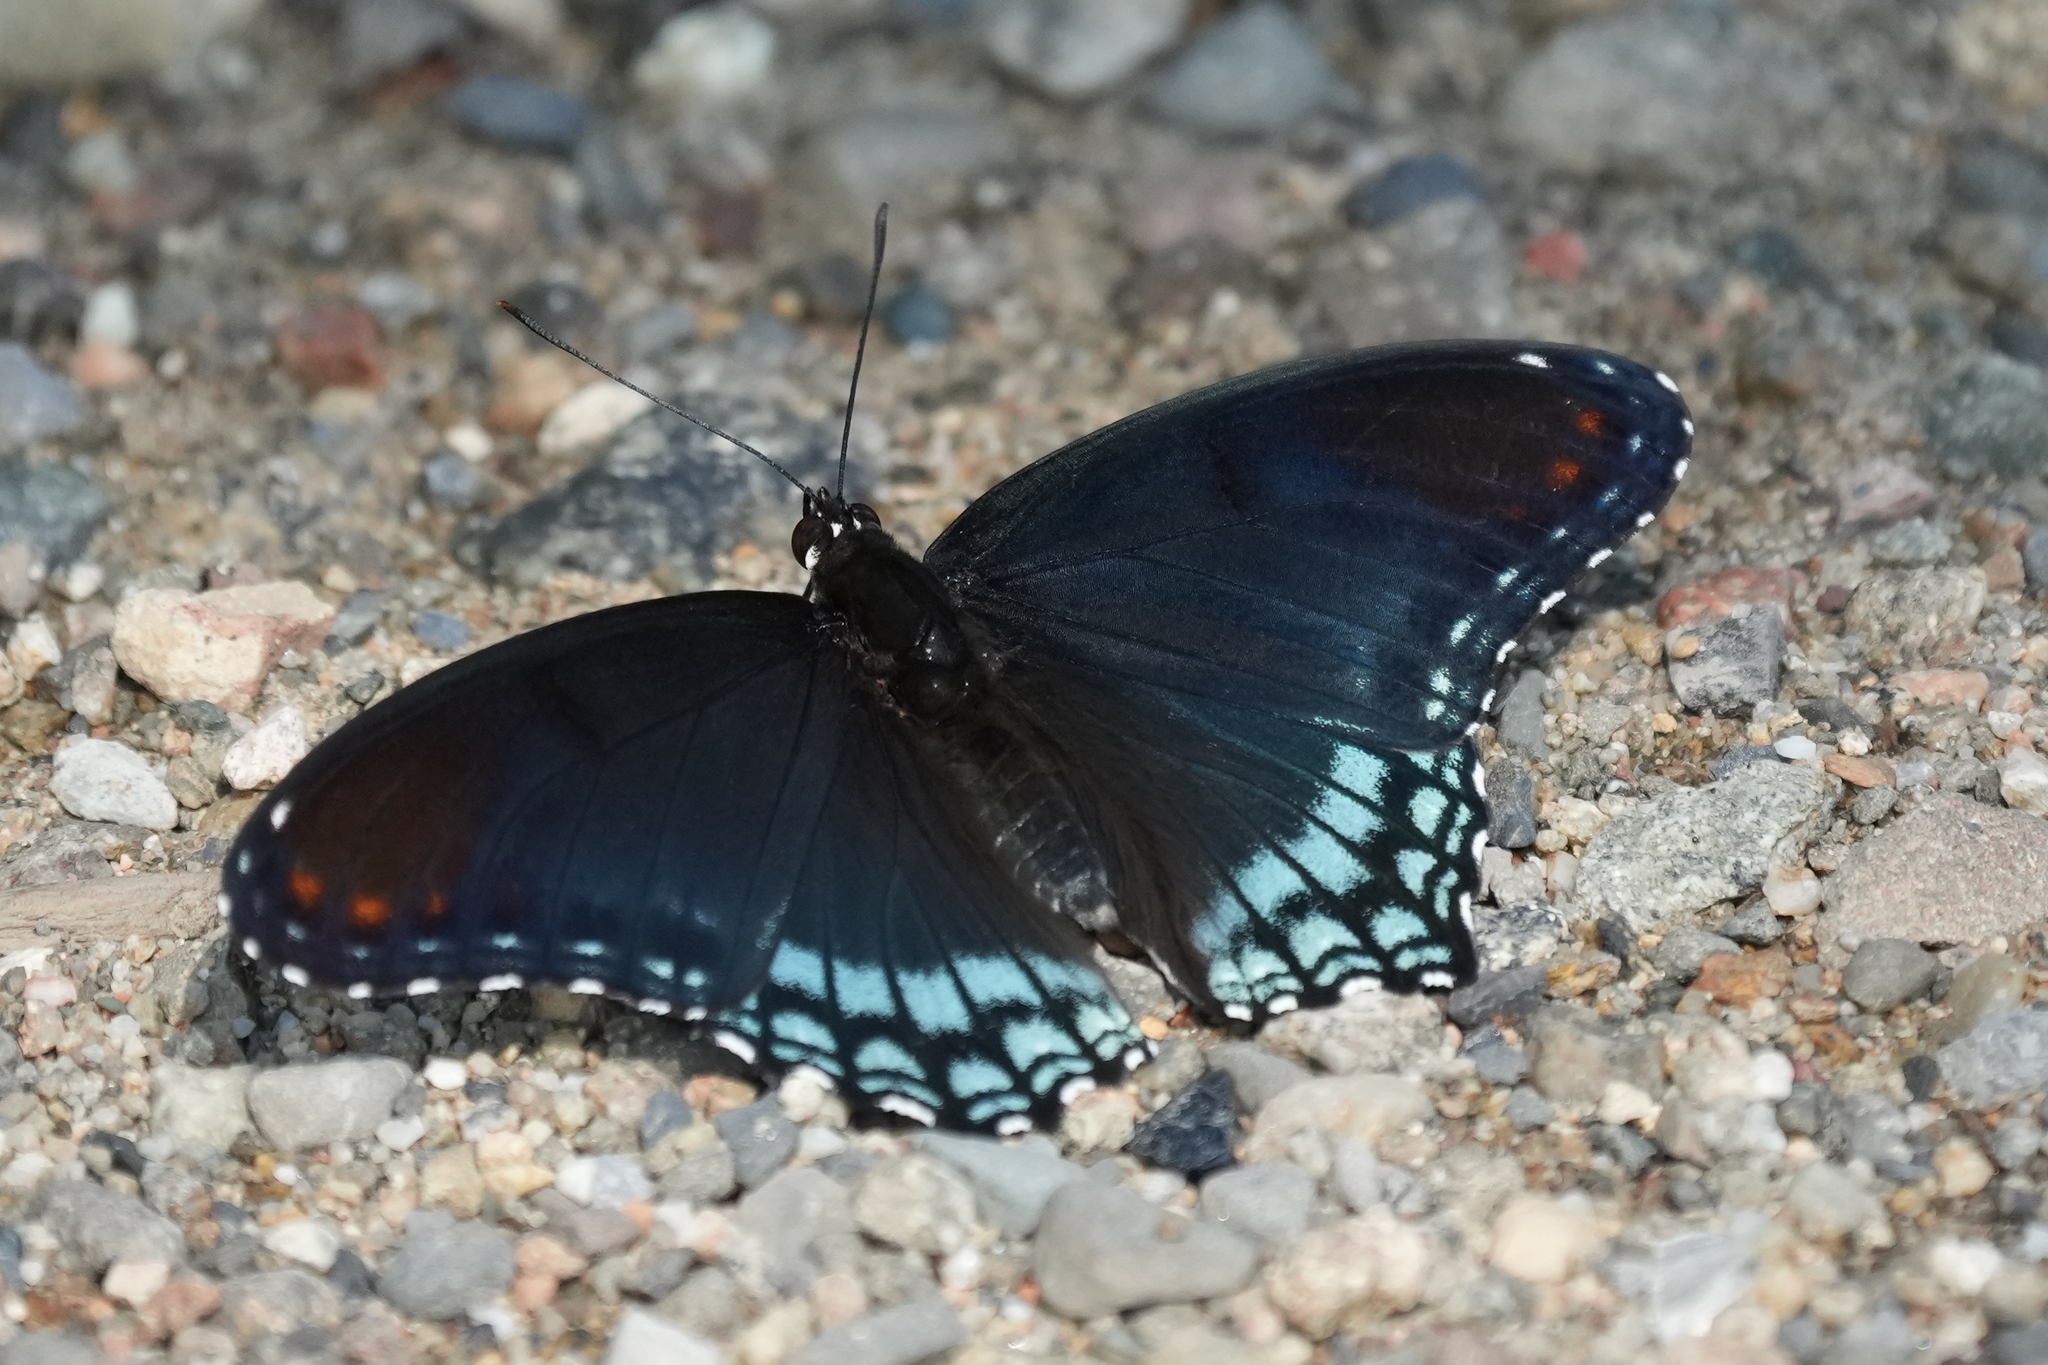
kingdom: Animalia
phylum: Arthropoda
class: Insecta
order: Lepidoptera
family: Nymphalidae
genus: Limenitis
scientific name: Limenitis arthemis
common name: Red-spotted admiral
